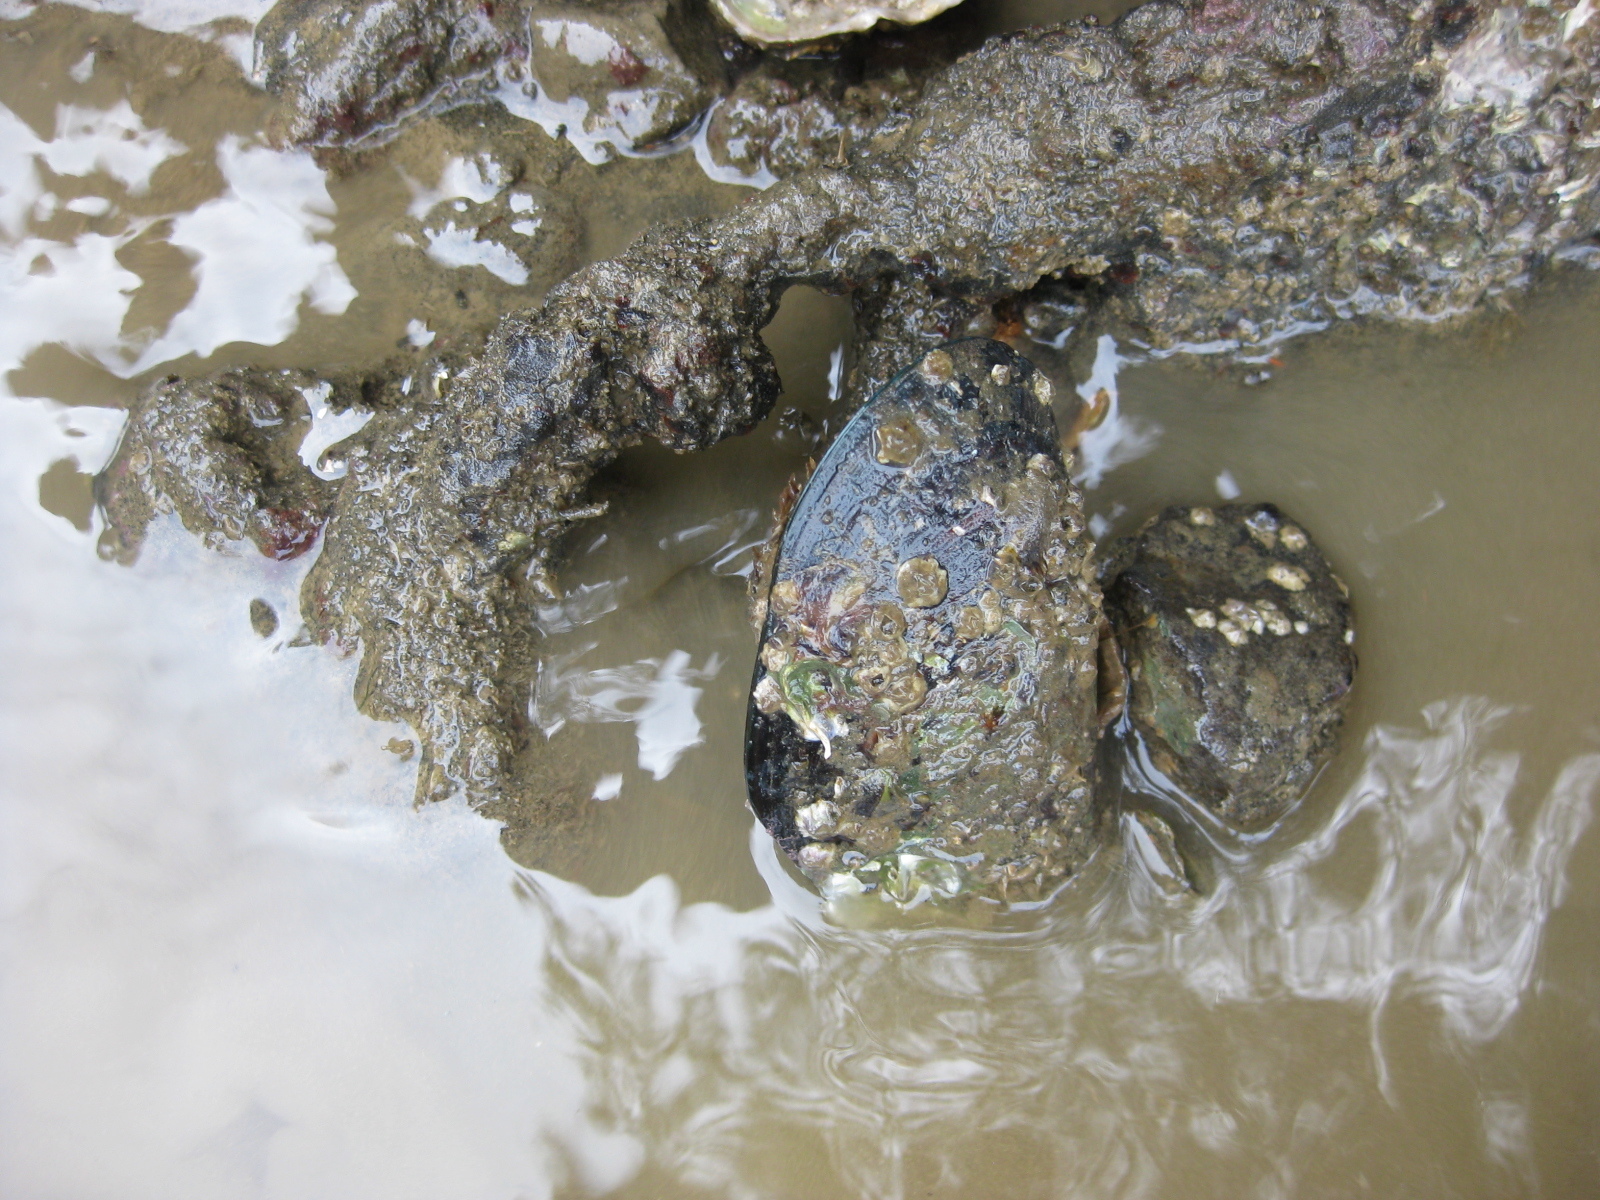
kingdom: Animalia
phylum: Mollusca
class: Bivalvia
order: Mytilida
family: Mytilidae
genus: Perna
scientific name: Perna canaliculus
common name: New zealand greenshelltm
